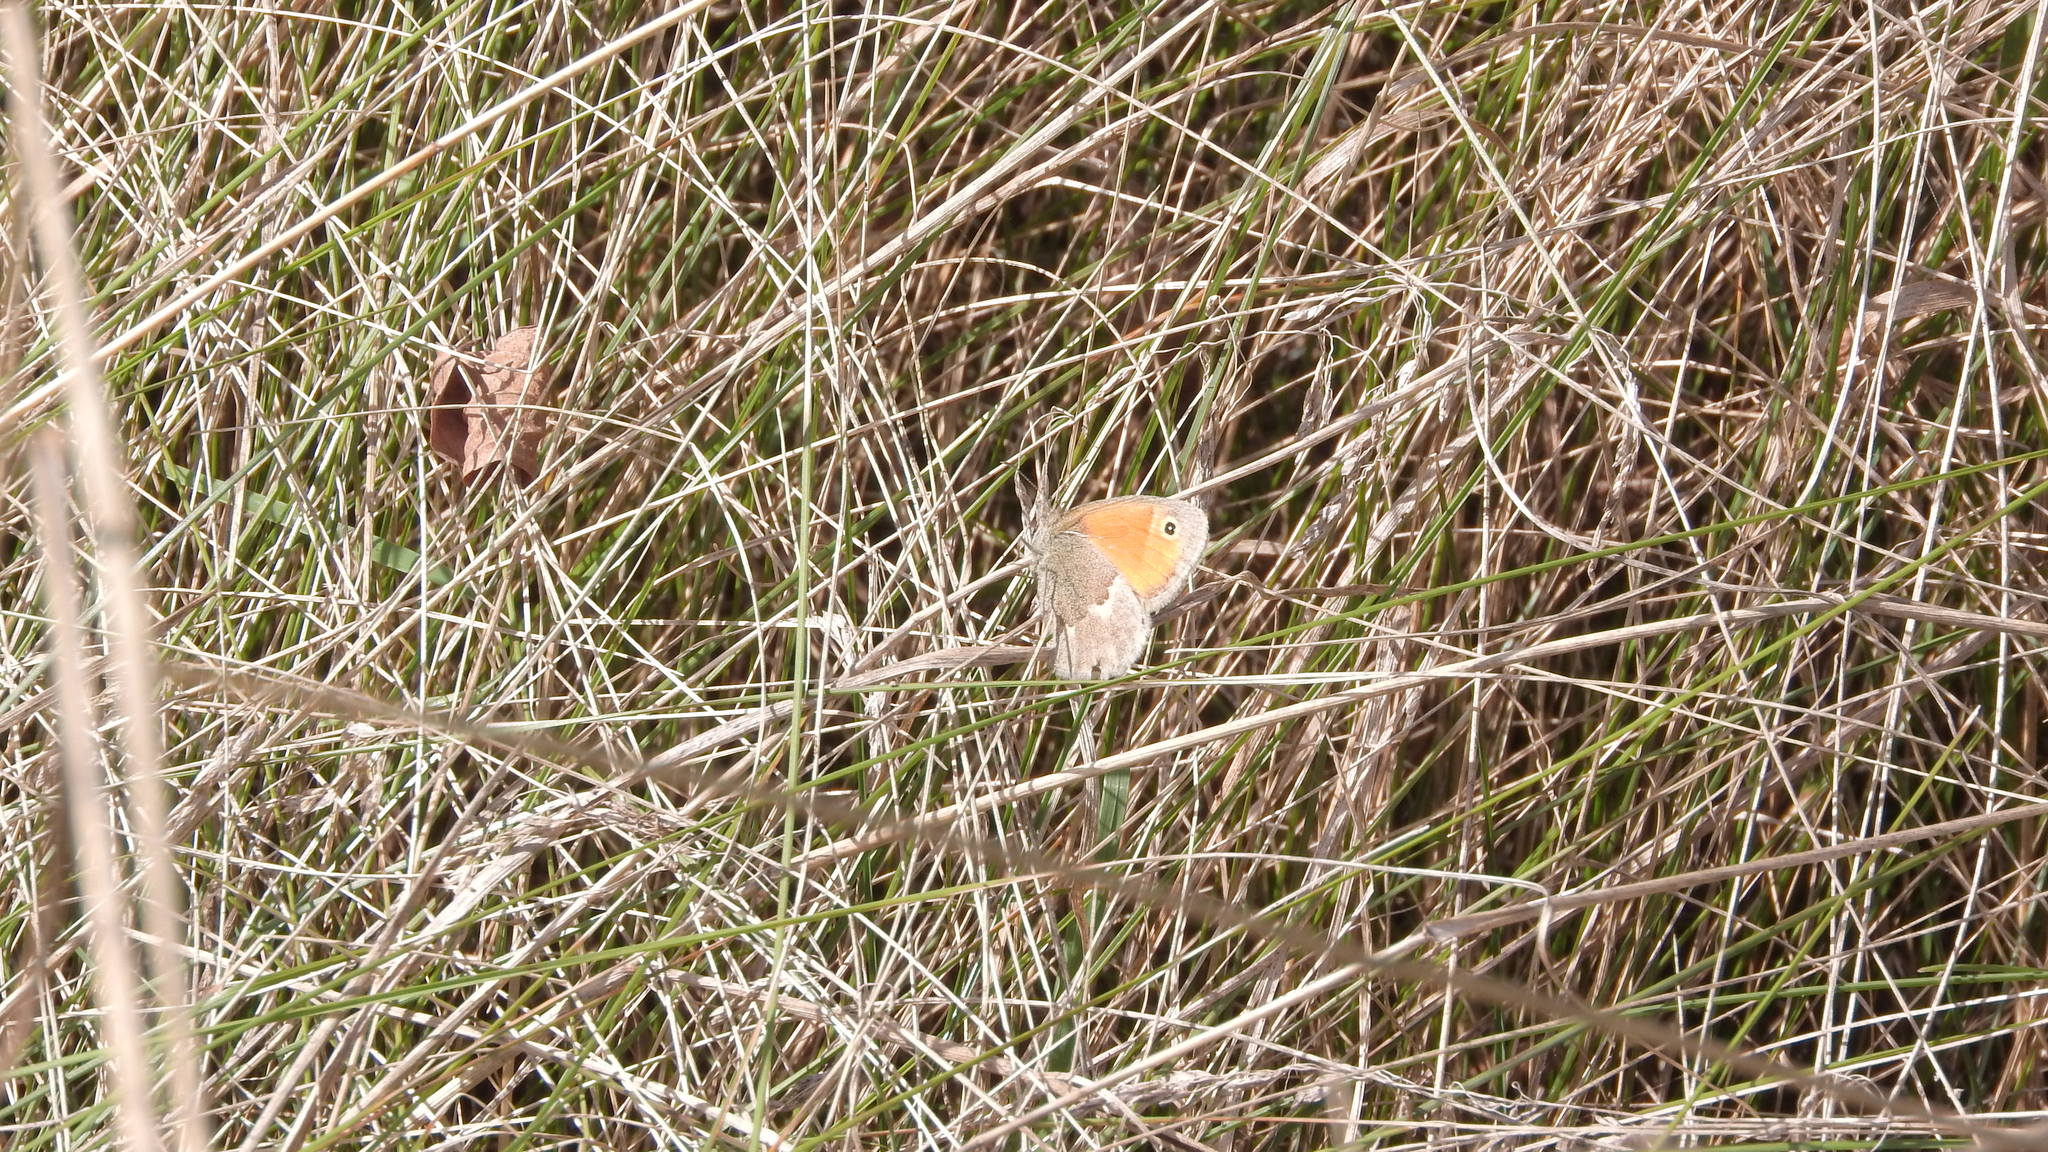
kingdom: Animalia
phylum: Arthropoda
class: Insecta
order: Lepidoptera
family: Nymphalidae
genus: Coenonympha
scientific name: Coenonympha pamphilus
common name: Small heath
